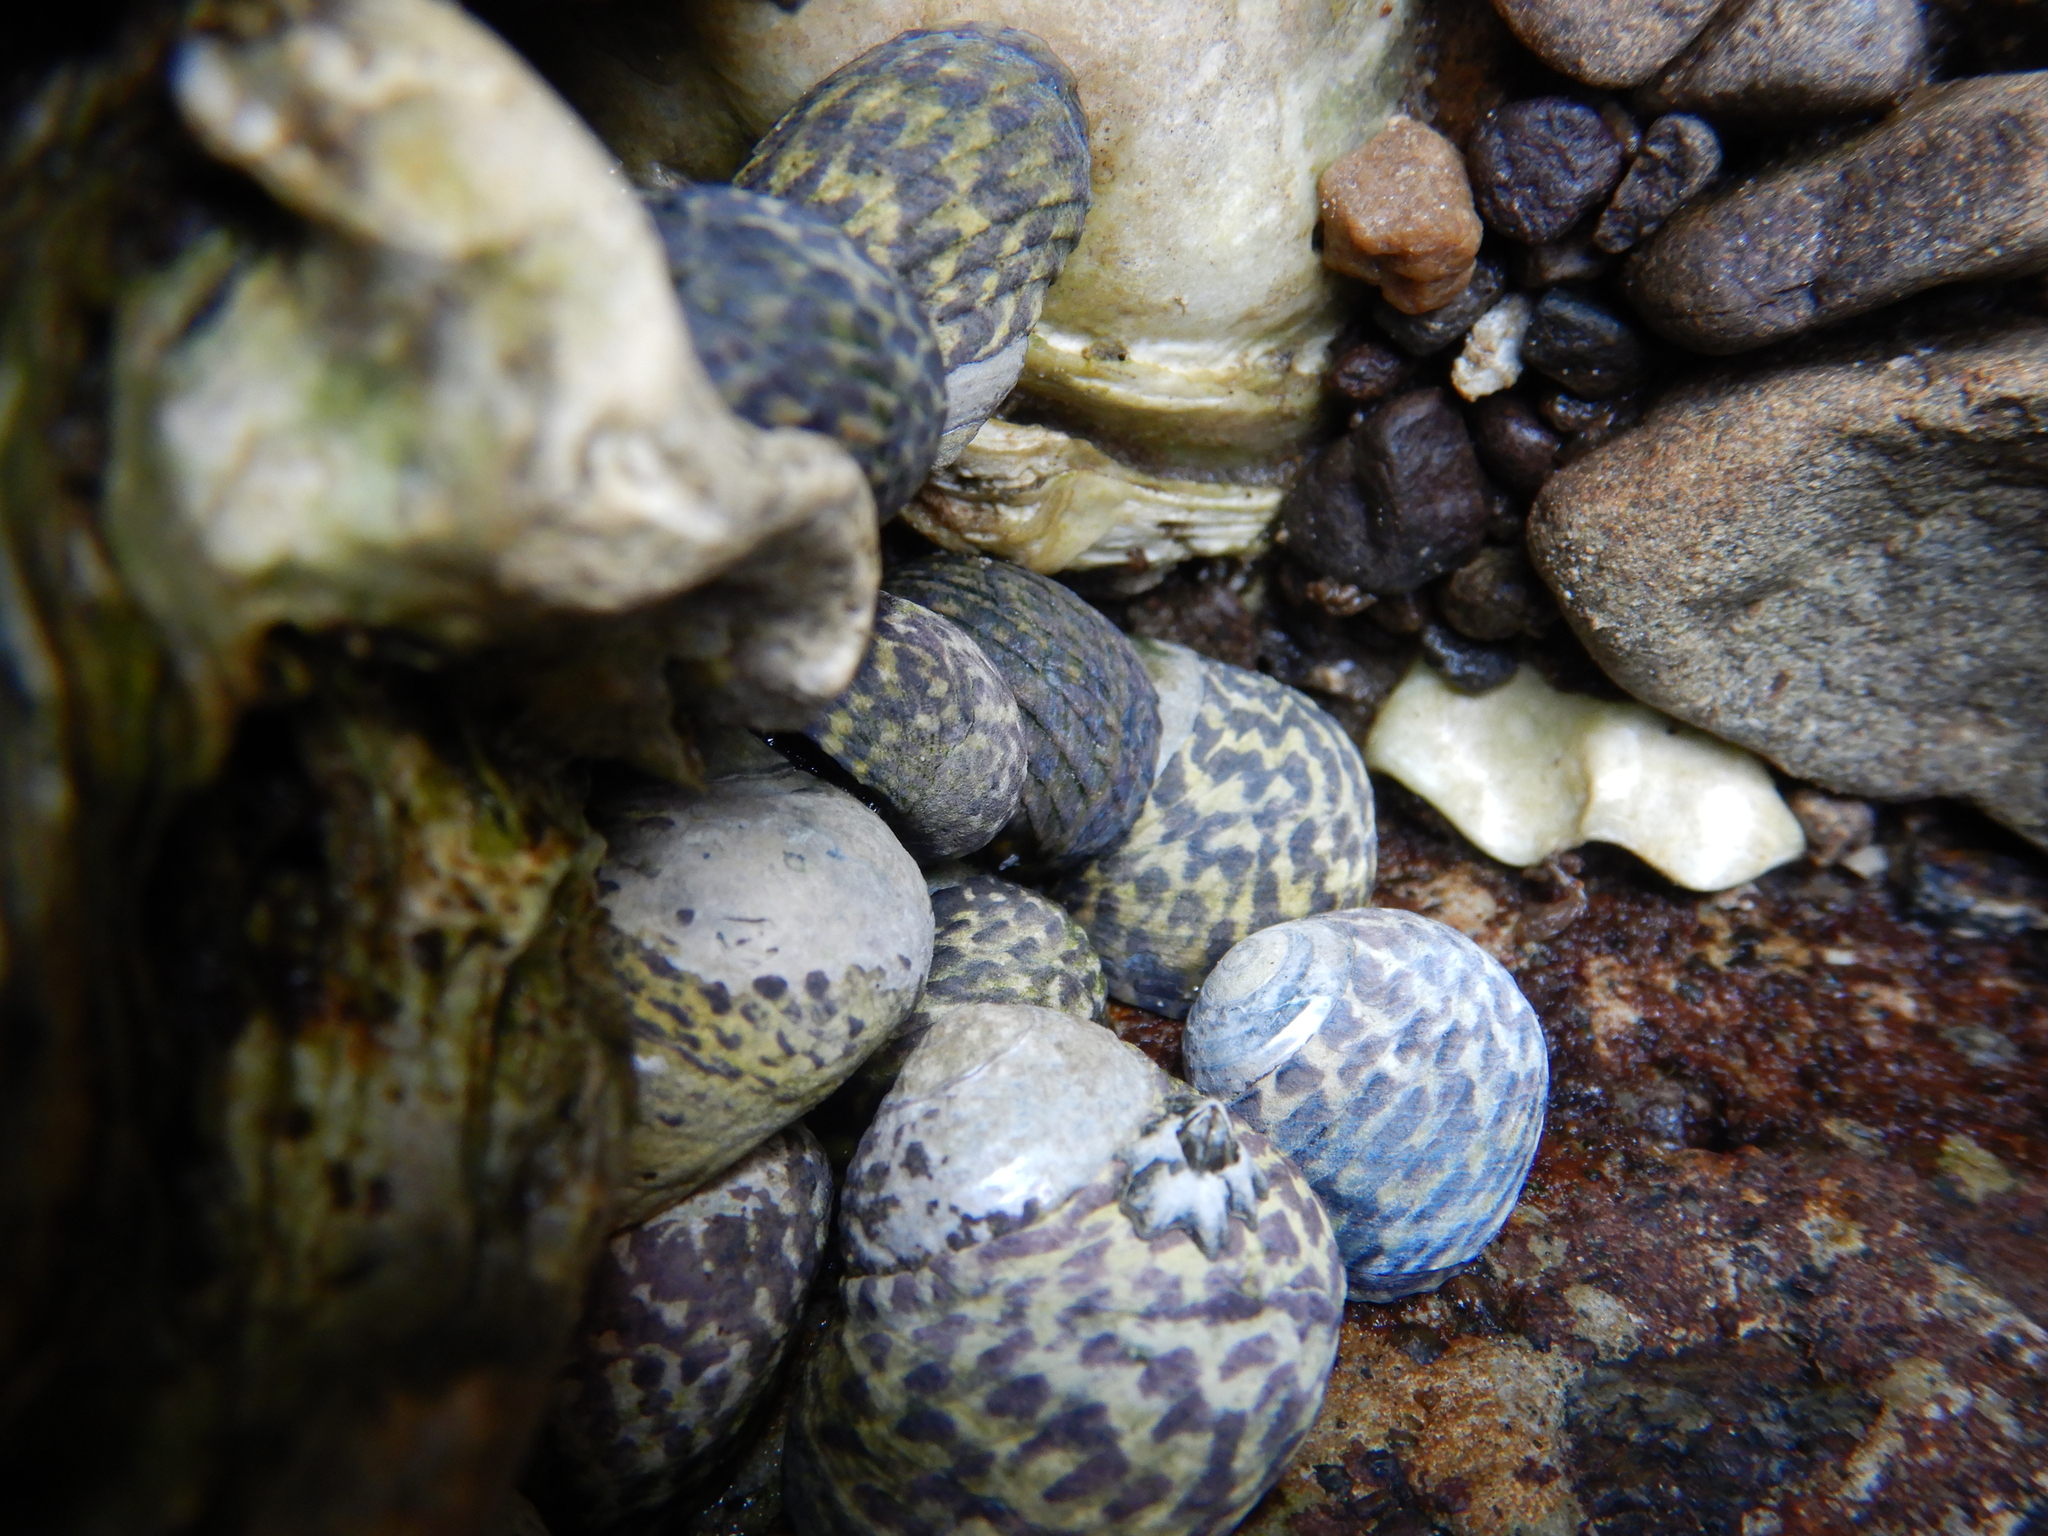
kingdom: Animalia
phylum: Mollusca
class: Gastropoda
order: Trochida
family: Trochidae
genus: Diloma
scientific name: Diloma concameratum
